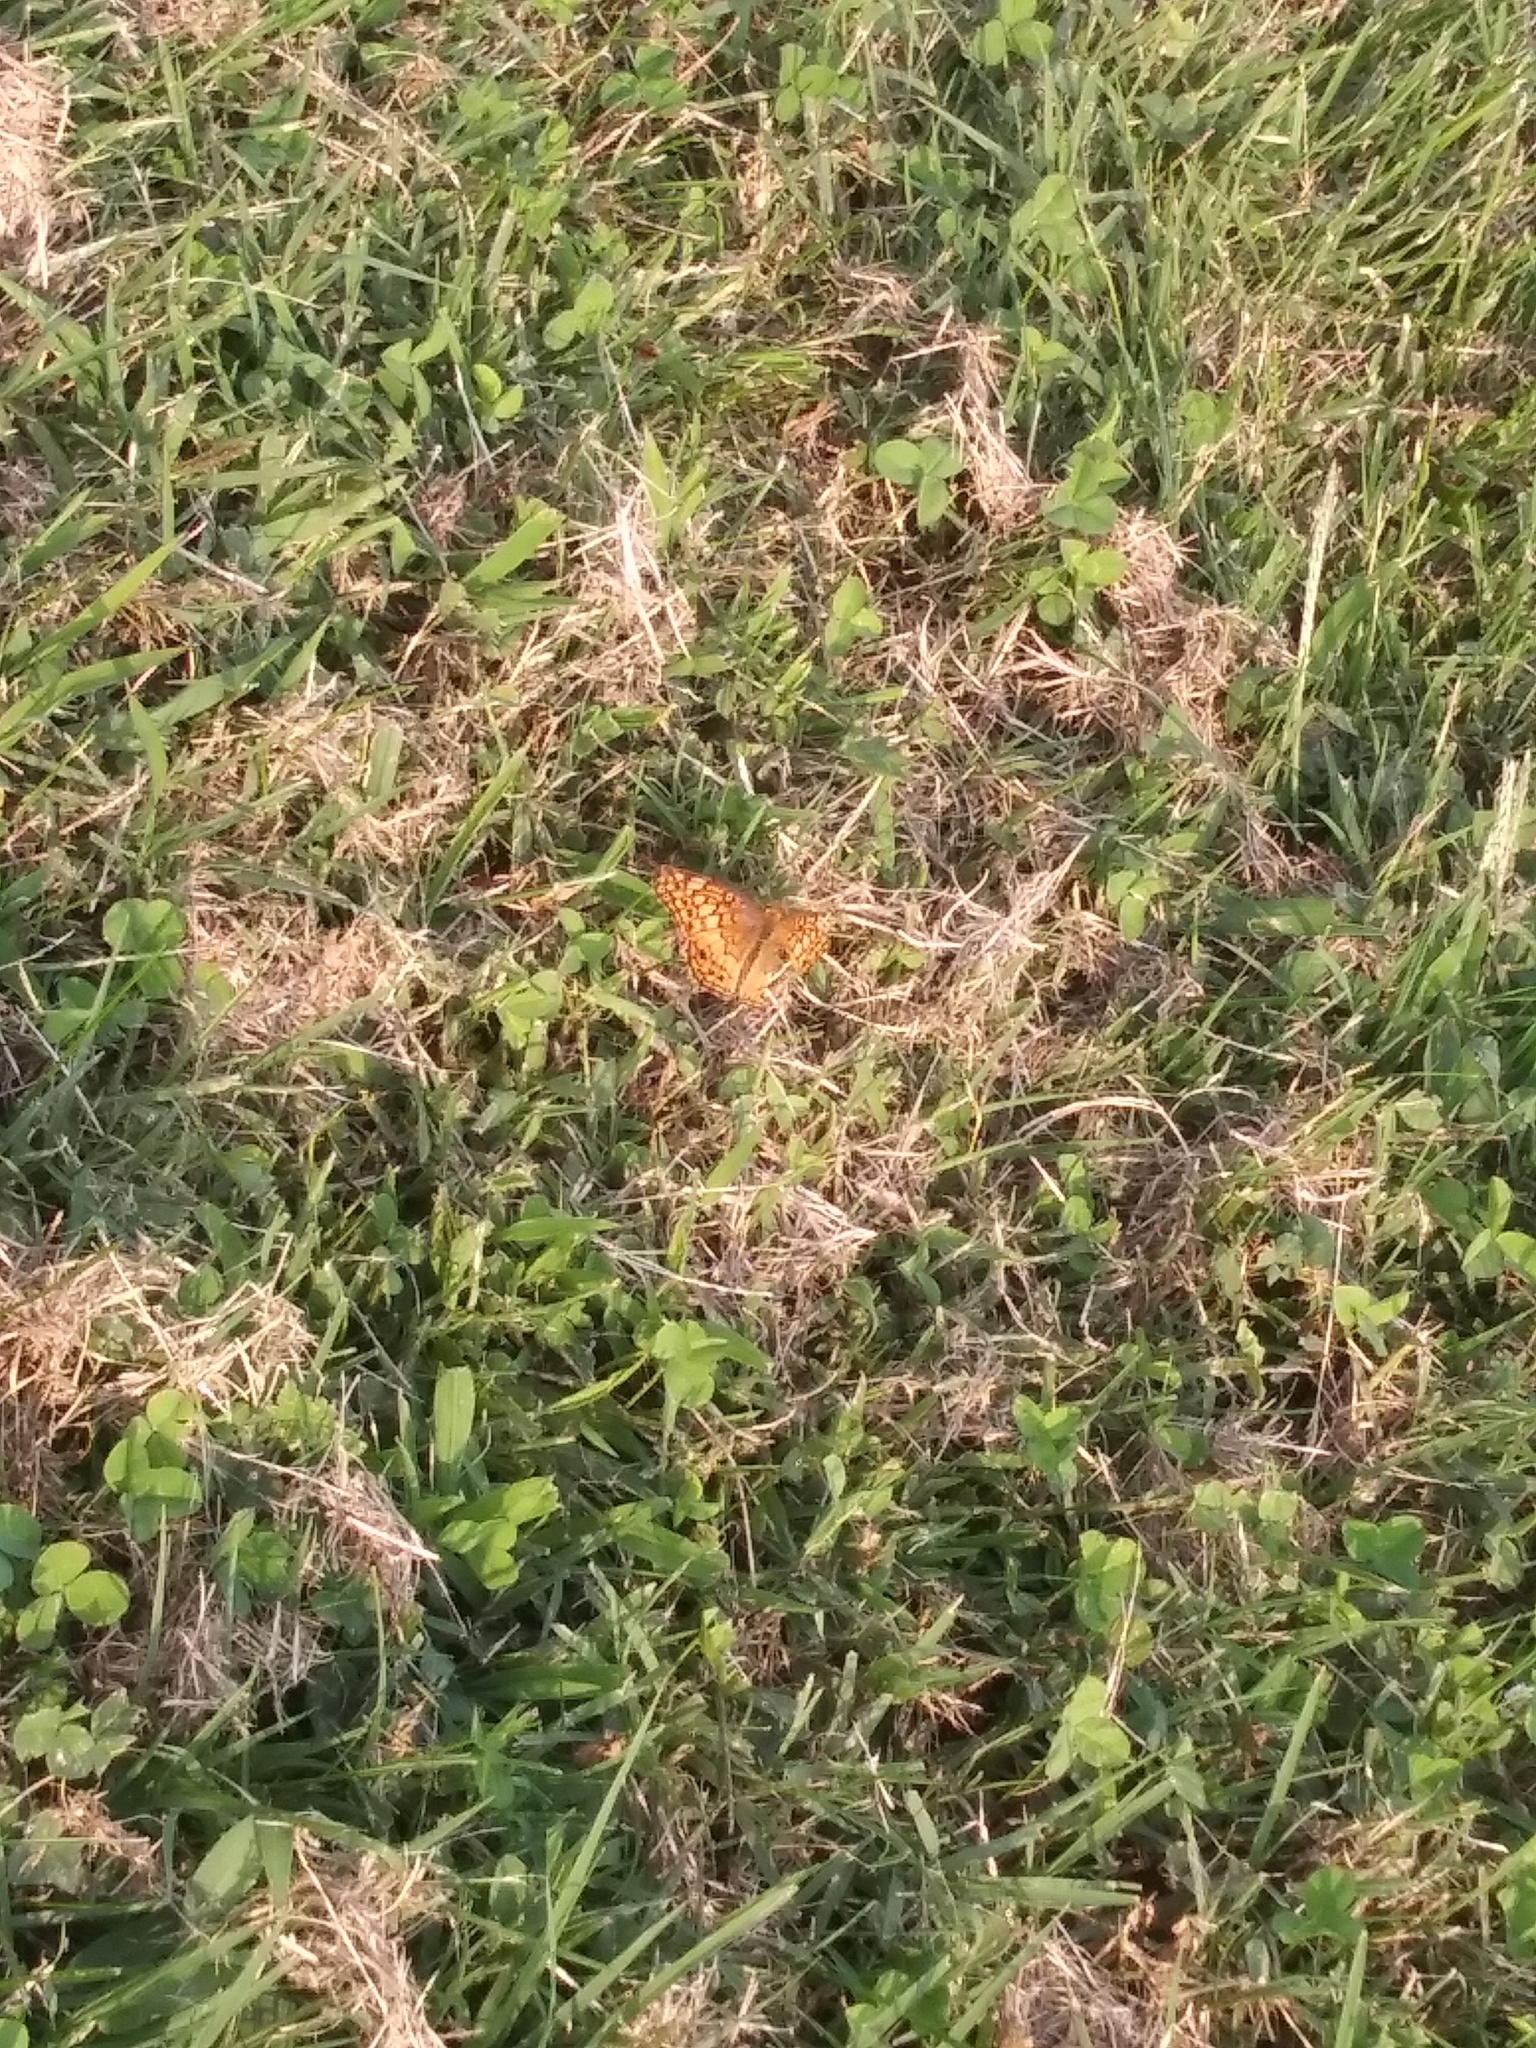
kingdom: Animalia
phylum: Arthropoda
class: Insecta
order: Lepidoptera
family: Nymphalidae
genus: Euptoieta
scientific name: Euptoieta claudia
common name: Variegated fritillary
